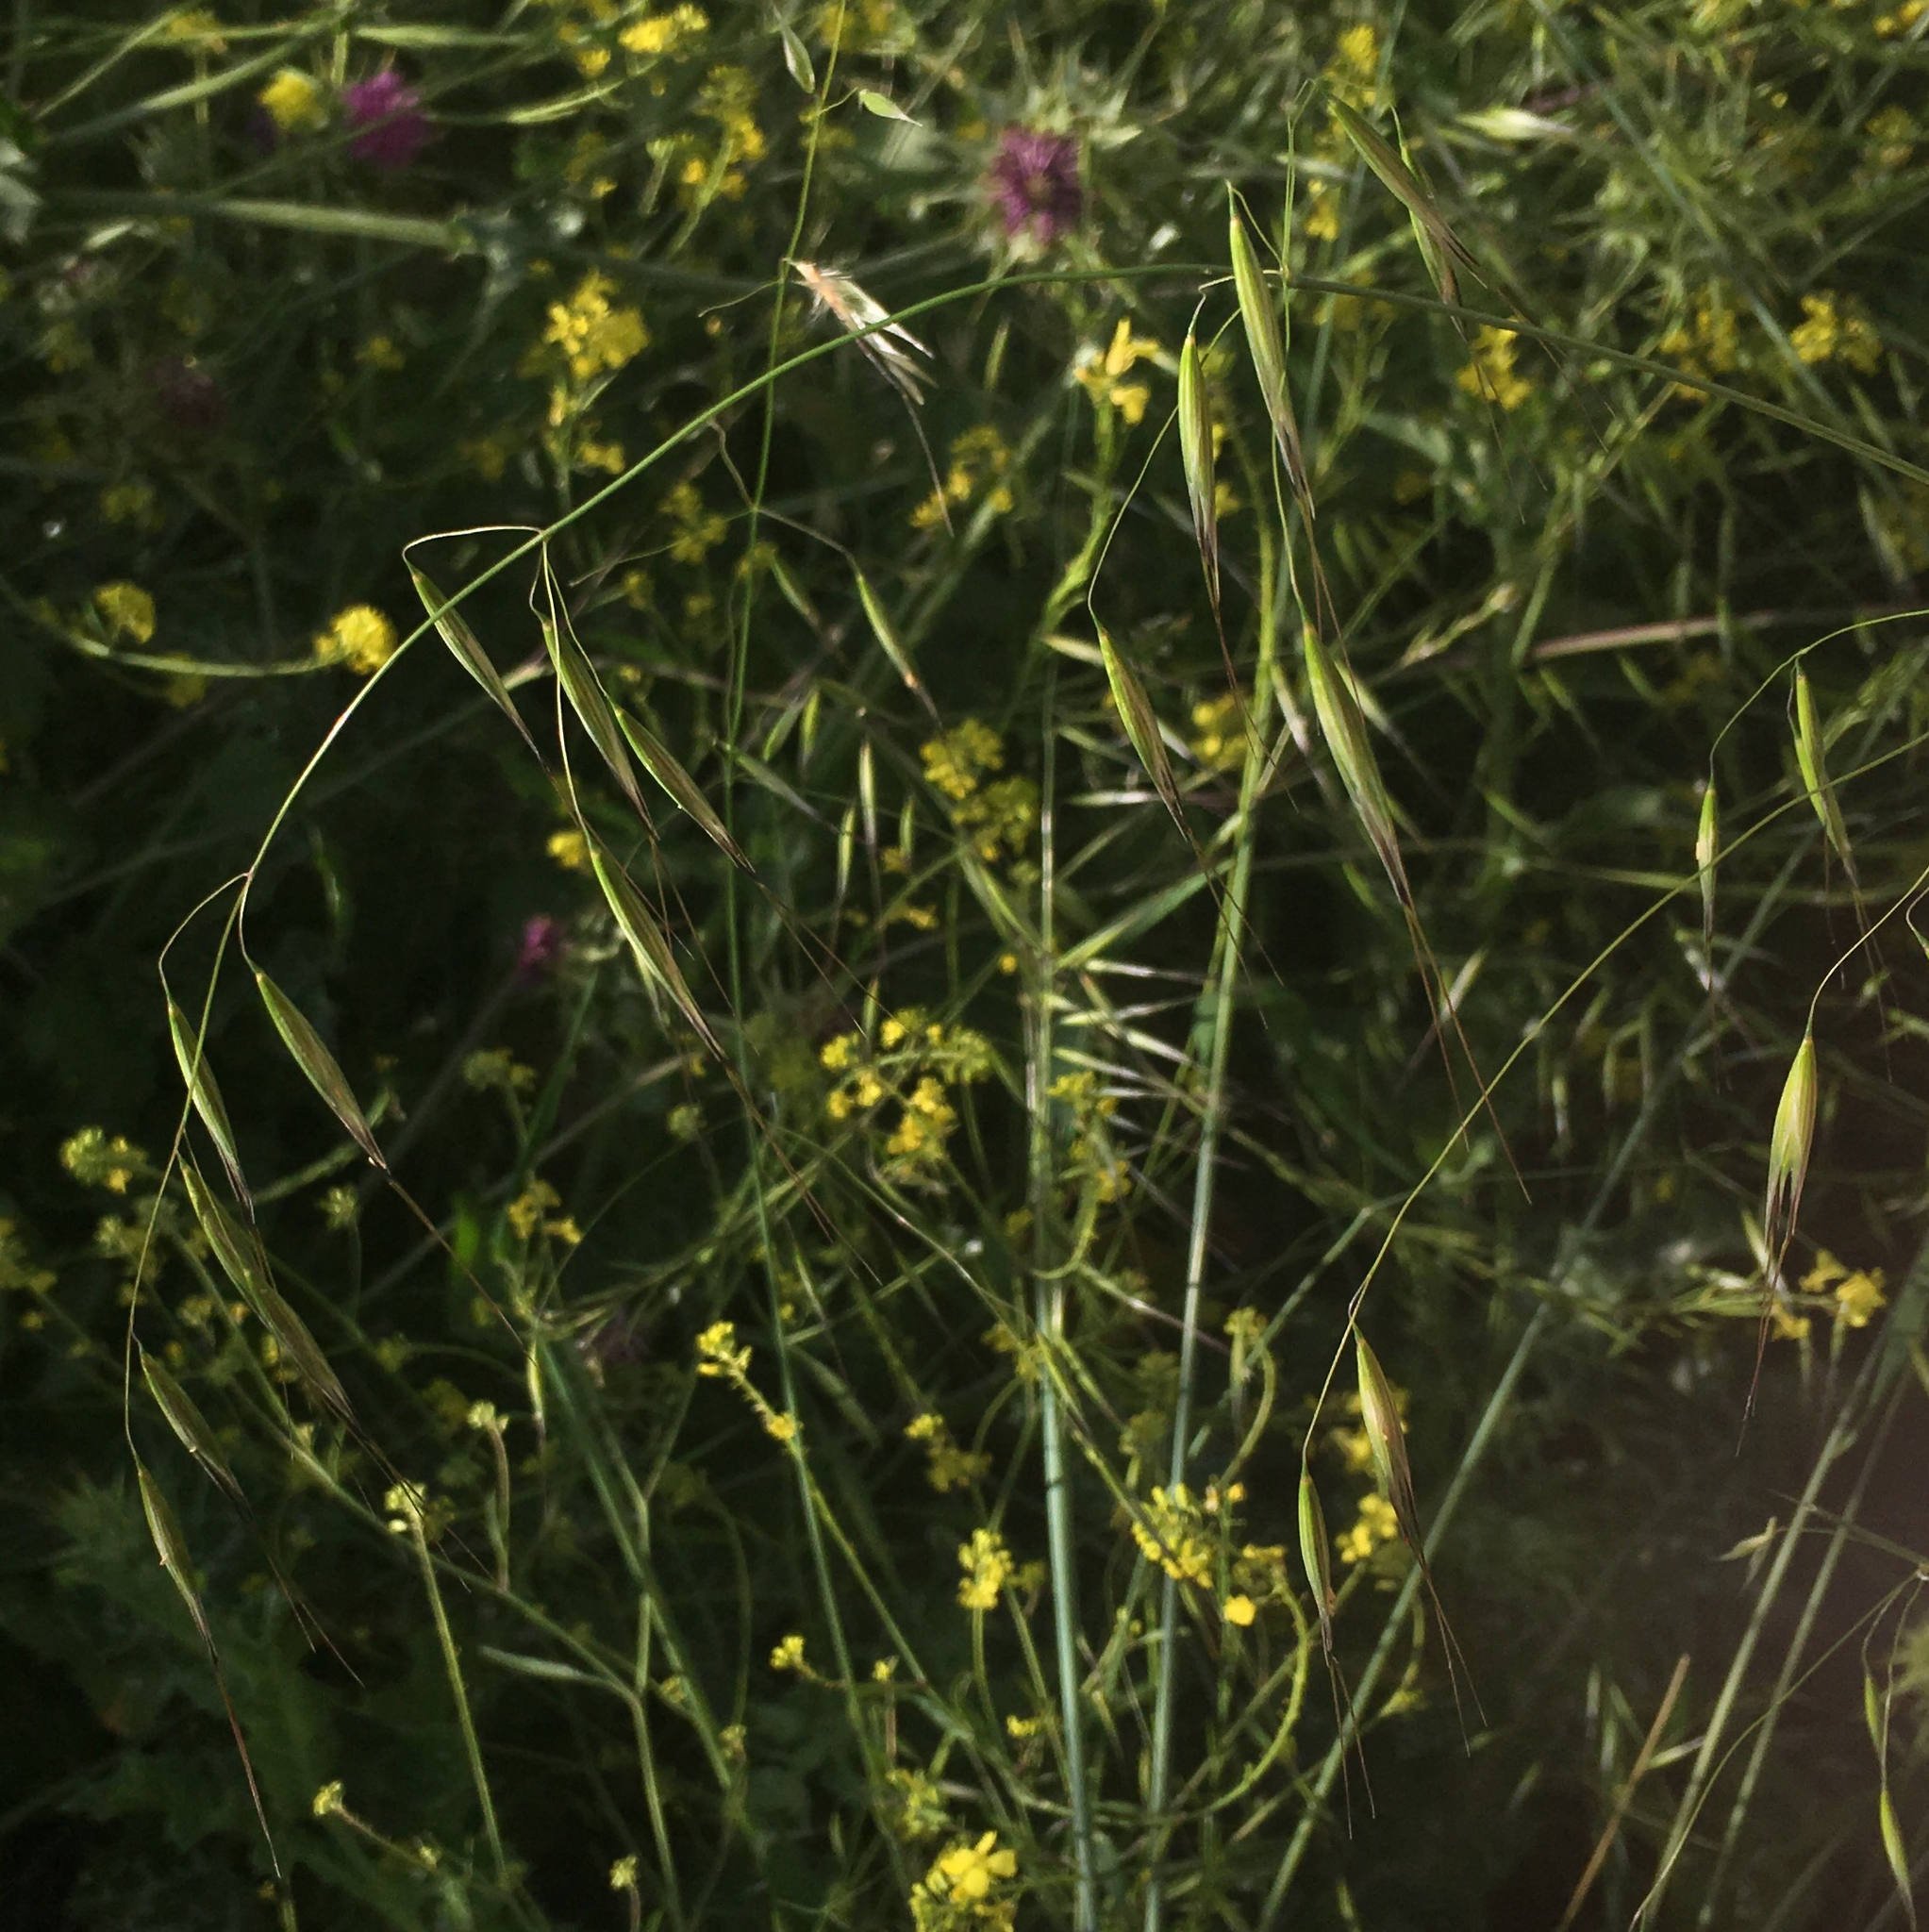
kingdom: Plantae
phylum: Tracheophyta
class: Liliopsida
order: Poales
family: Poaceae
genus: Avena
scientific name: Avena barbata
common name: Slender oat
